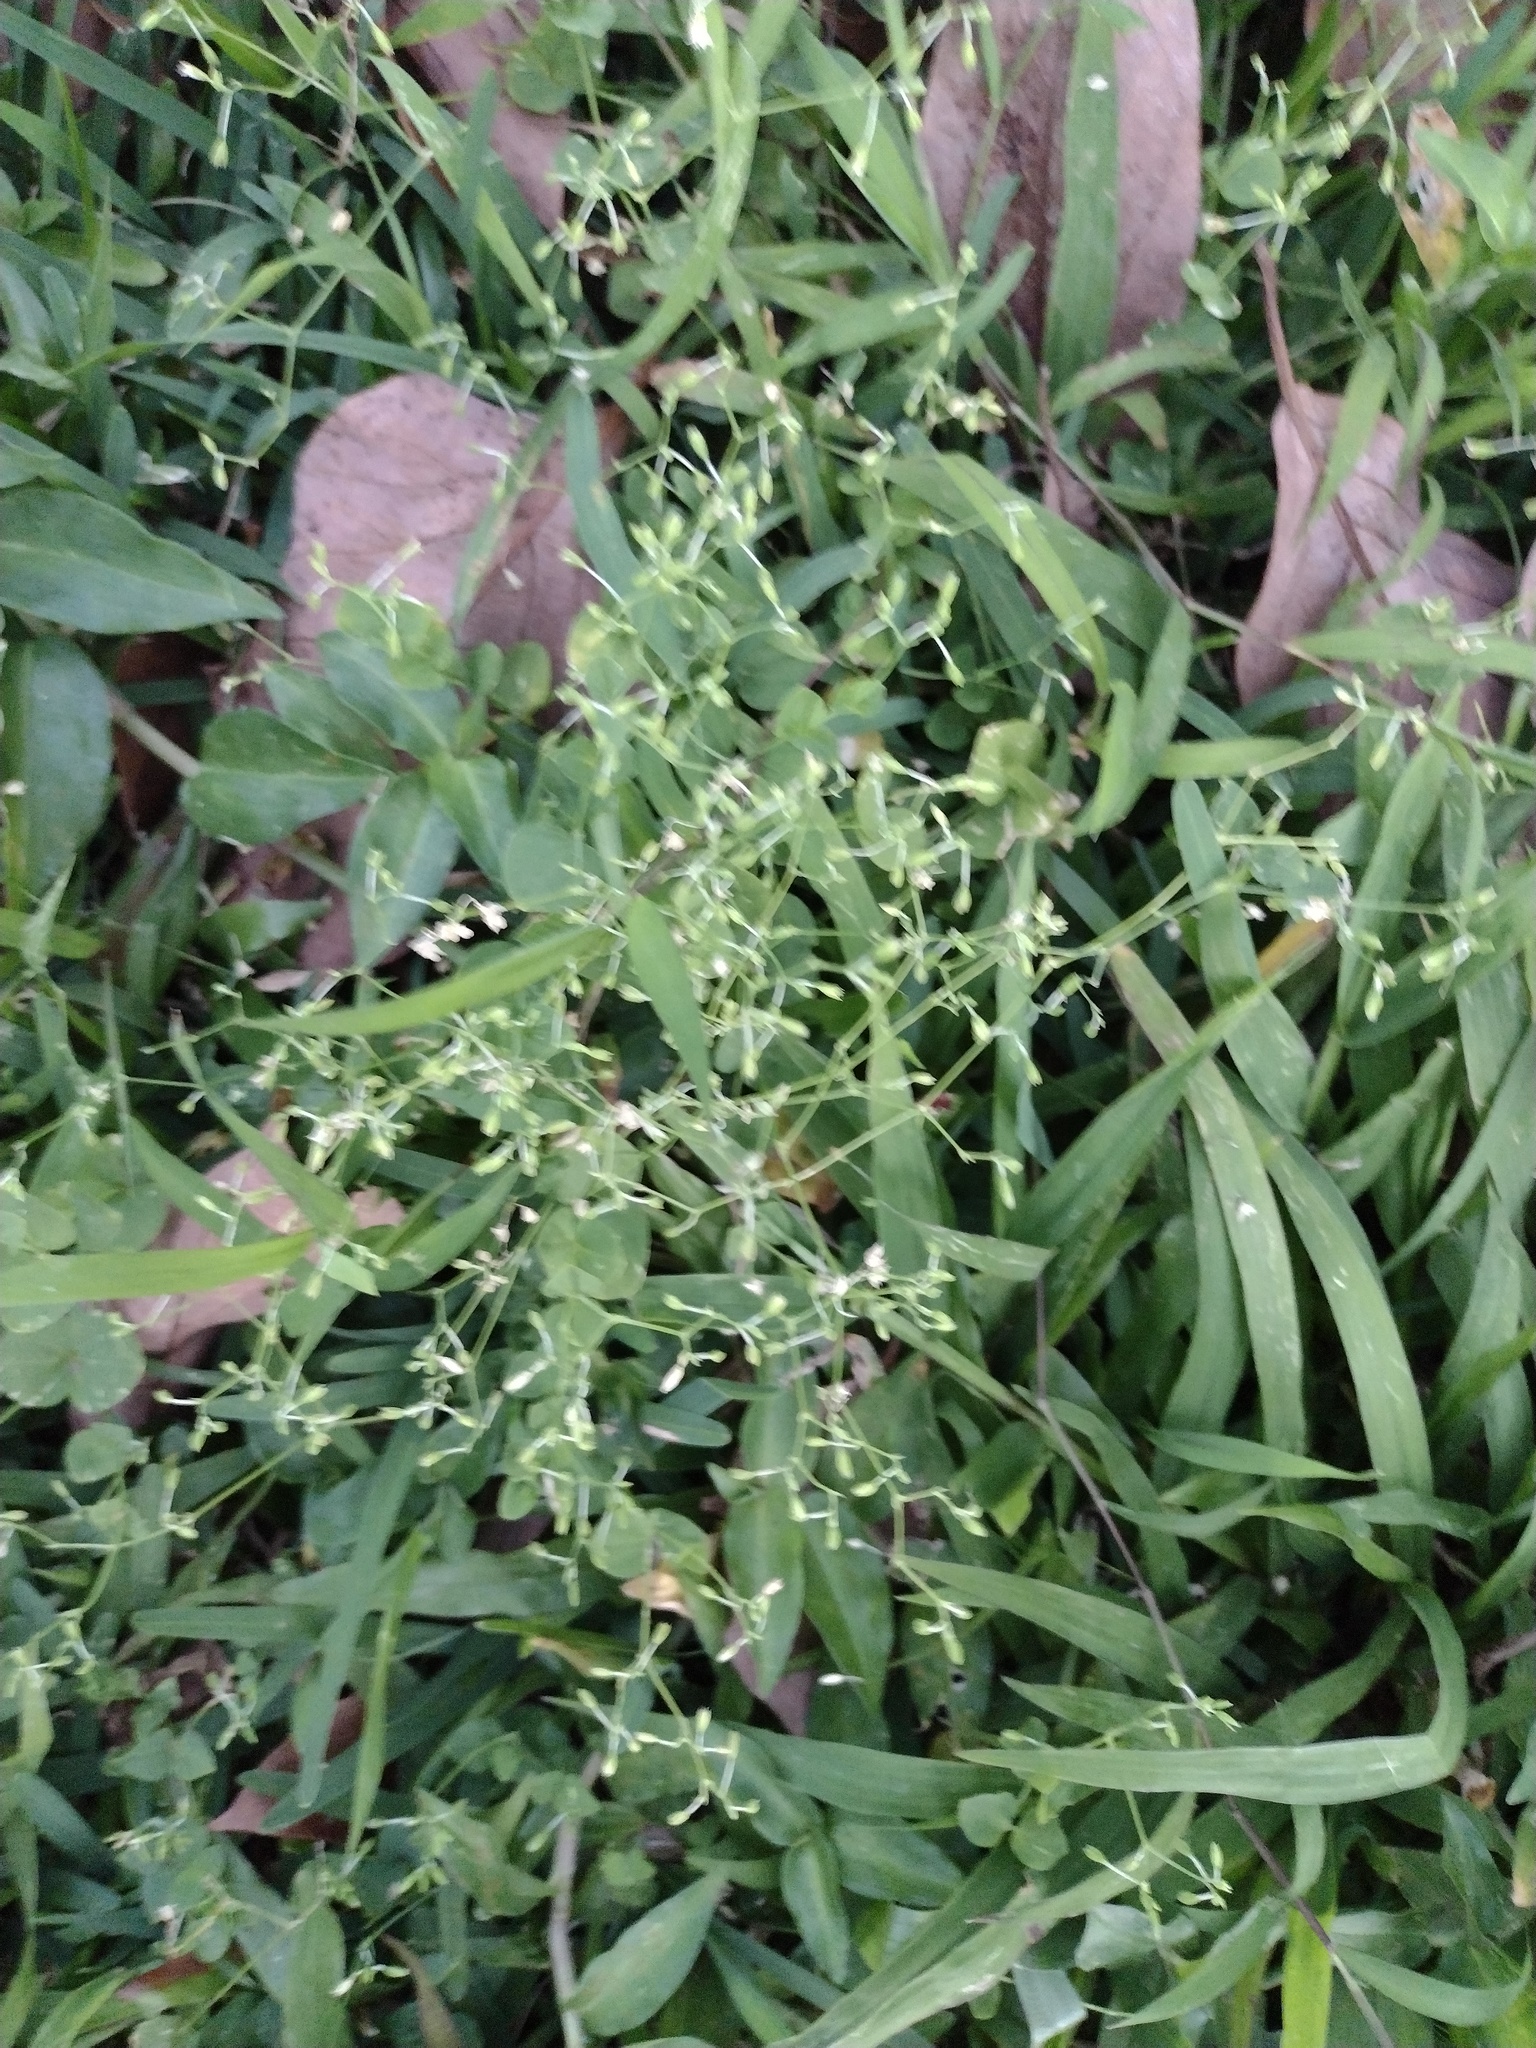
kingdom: Plantae
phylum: Tracheophyta
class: Magnoliopsida
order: Caryophyllales
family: Caryophyllaceae
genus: Drymaria
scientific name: Drymaria cordata
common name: Whitesnow
